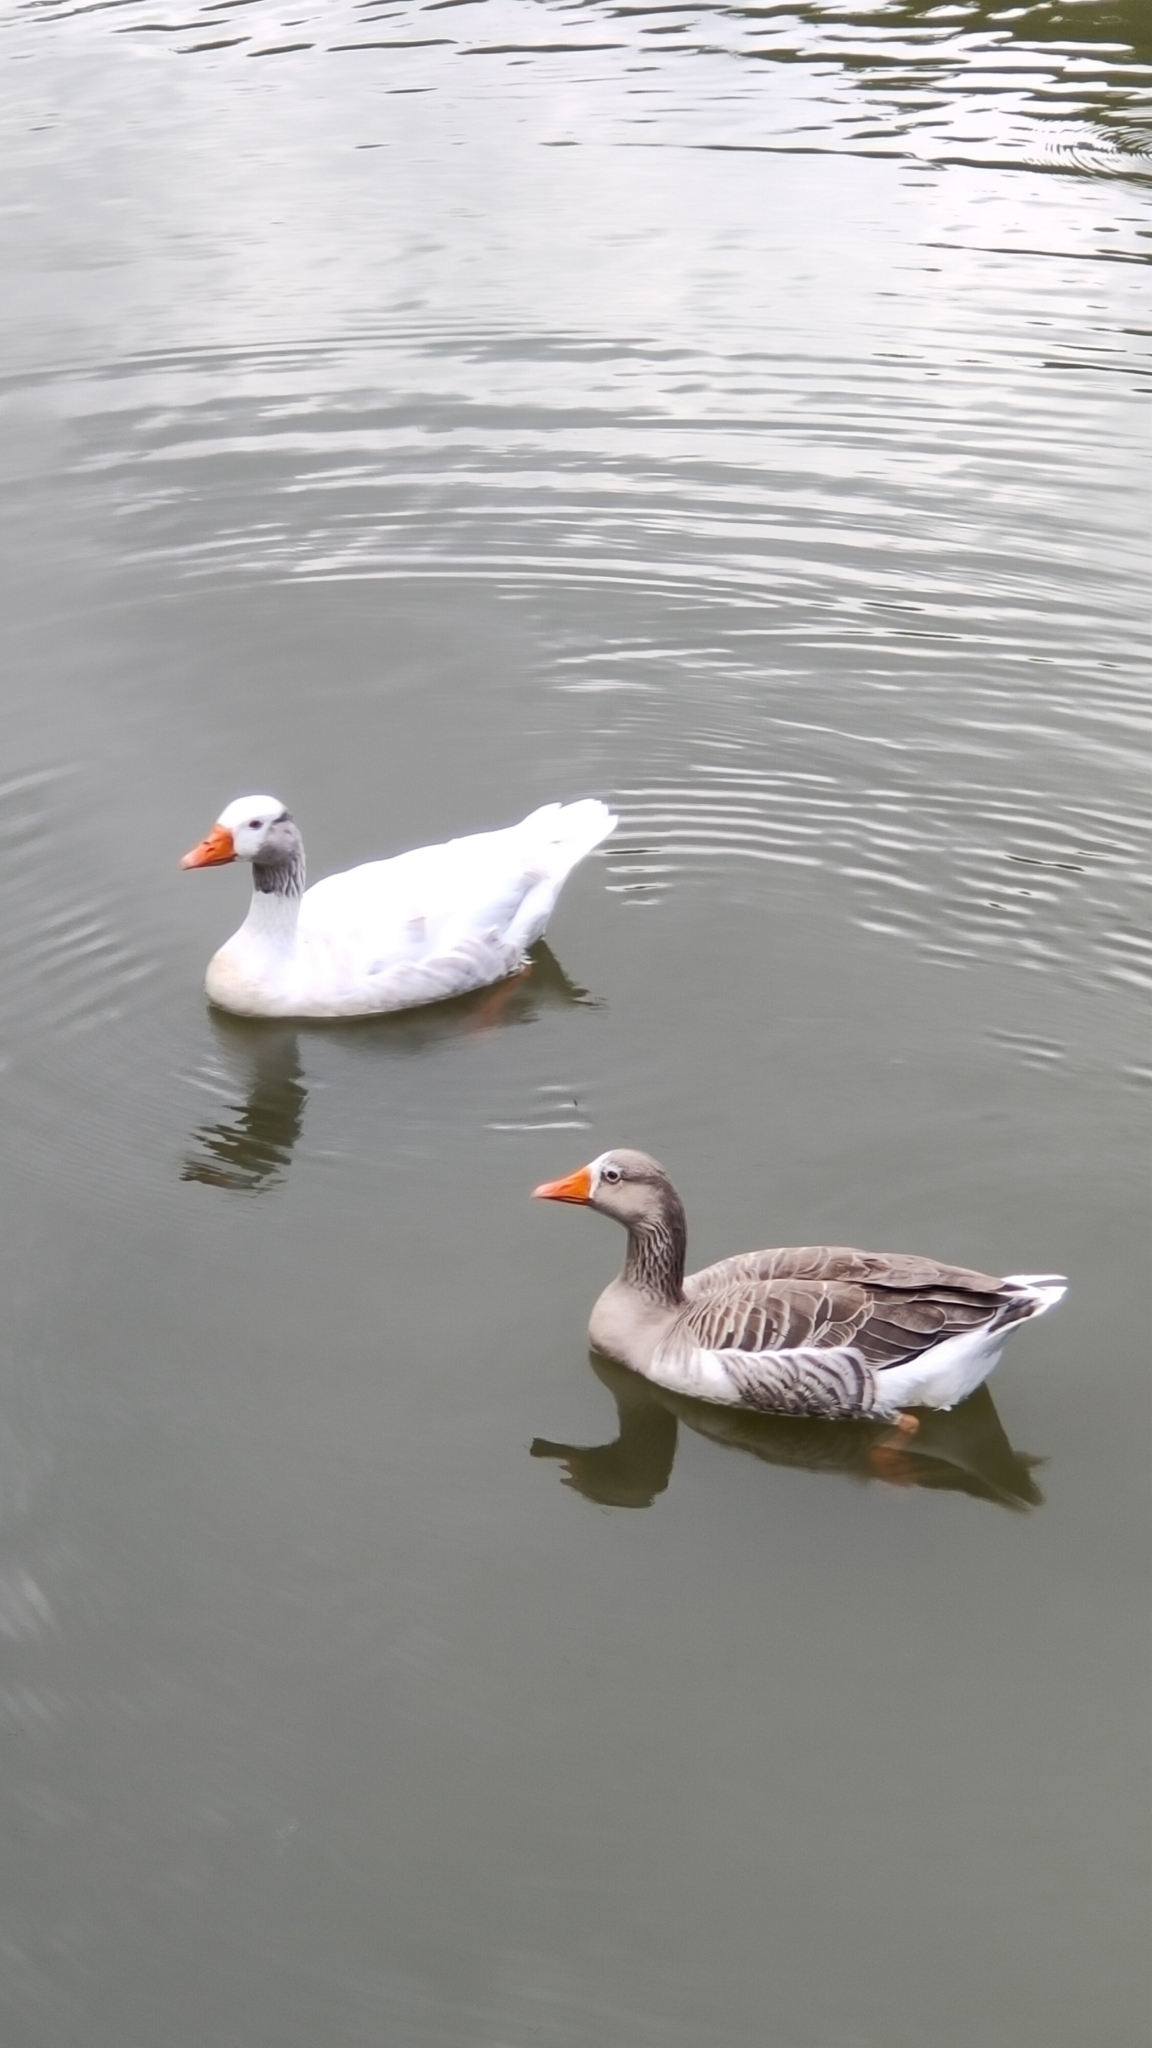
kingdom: Animalia
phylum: Chordata
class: Aves
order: Anseriformes
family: Anatidae
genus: Anser
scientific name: Anser anser
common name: Greylag goose
